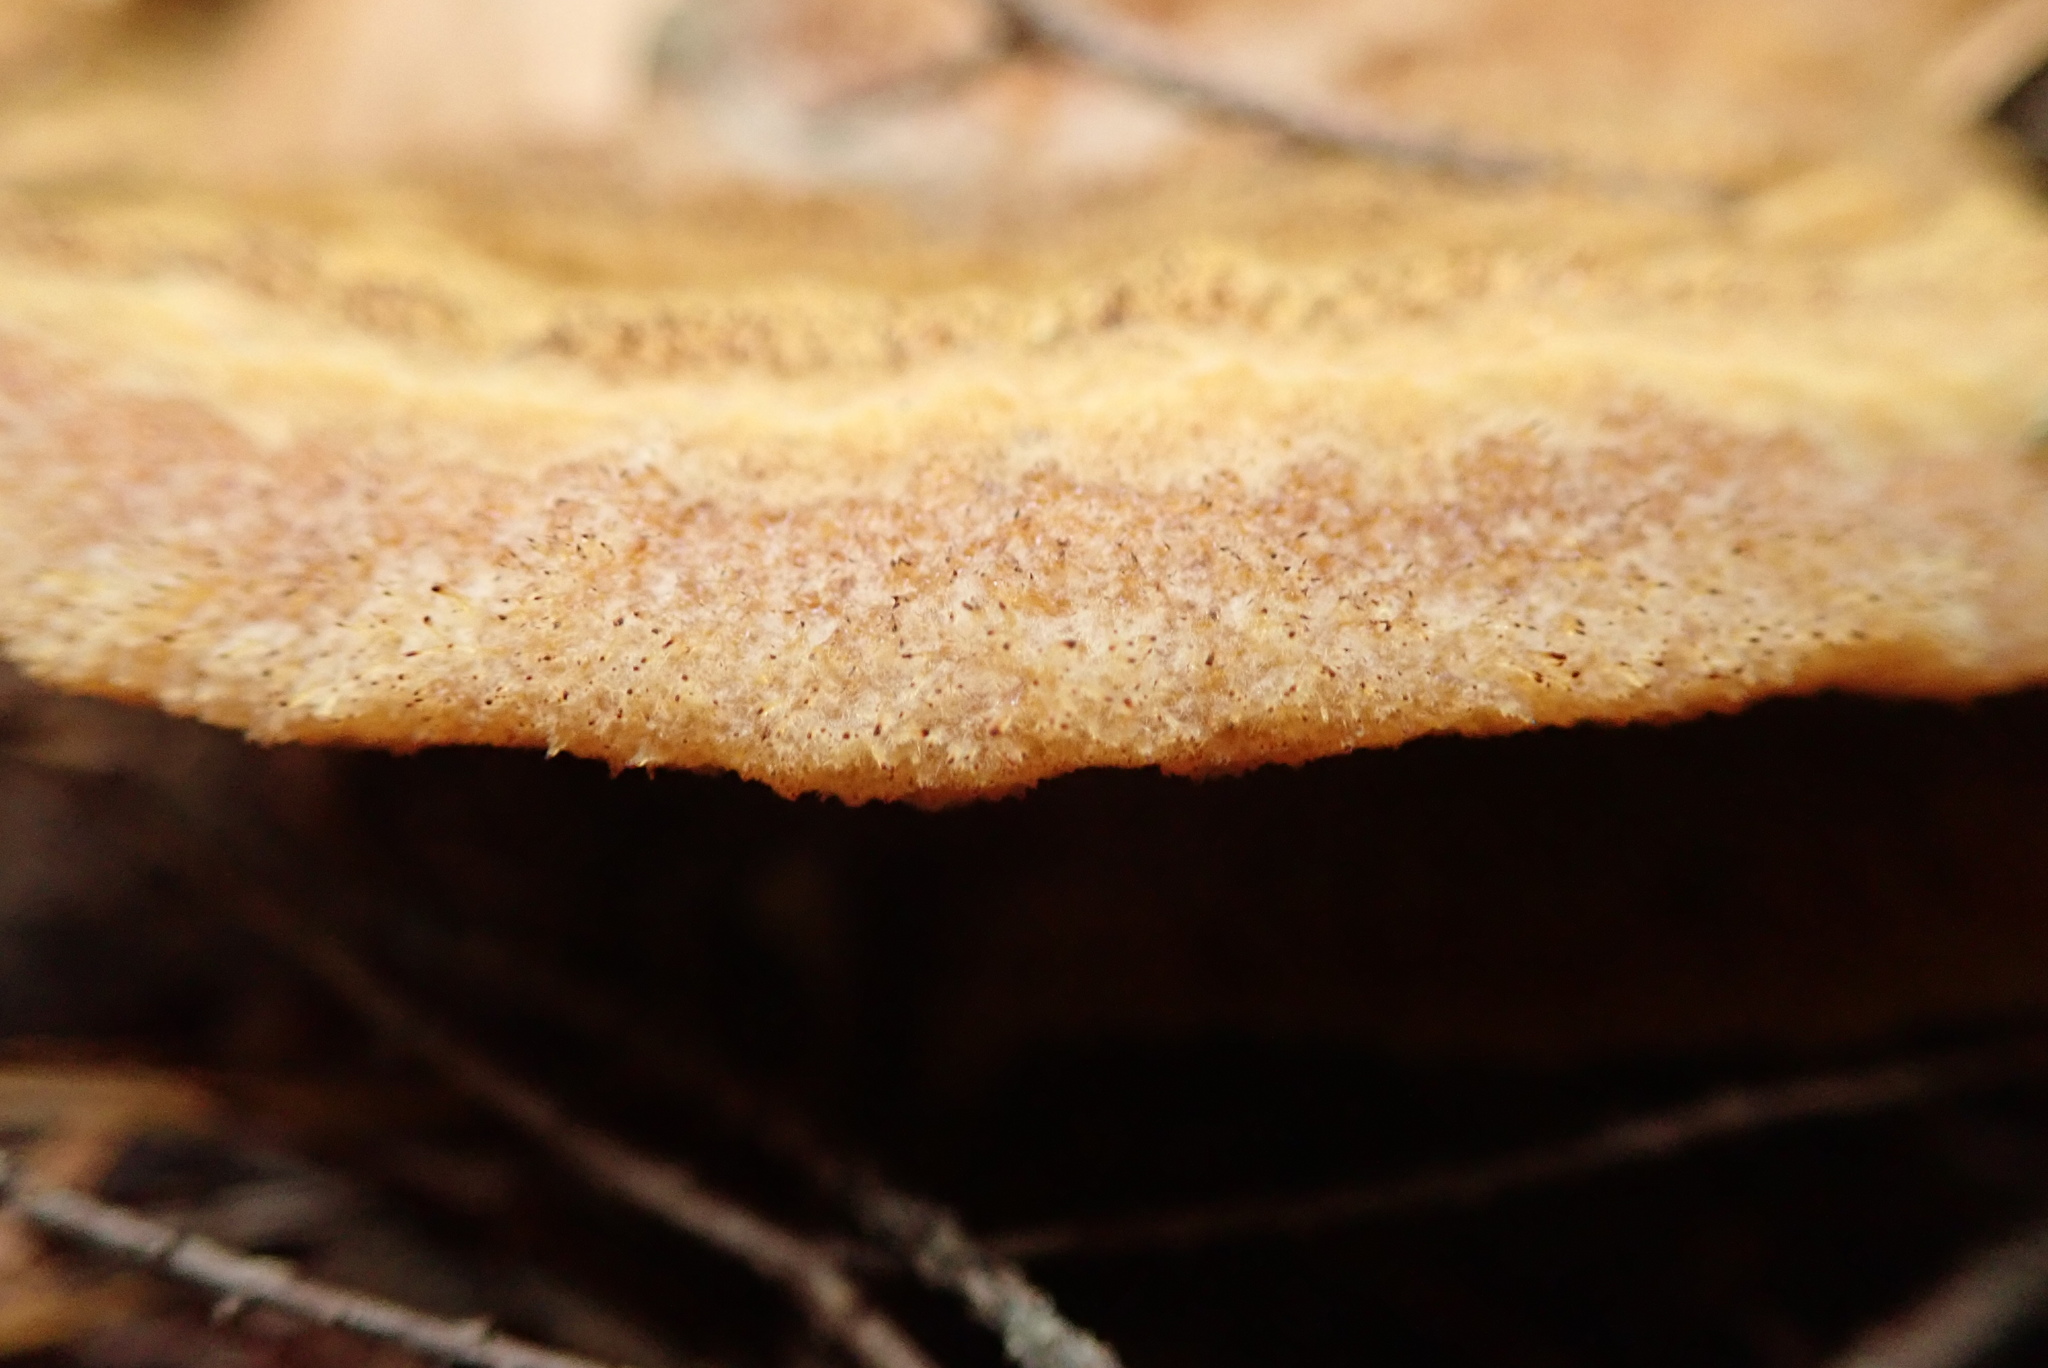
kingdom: Fungi
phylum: Basidiomycota
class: Agaricomycetes
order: Polyporales
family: Laetiporaceae
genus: Phaeolus
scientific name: Phaeolus schweinitzii
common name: Dyer's mazegill
